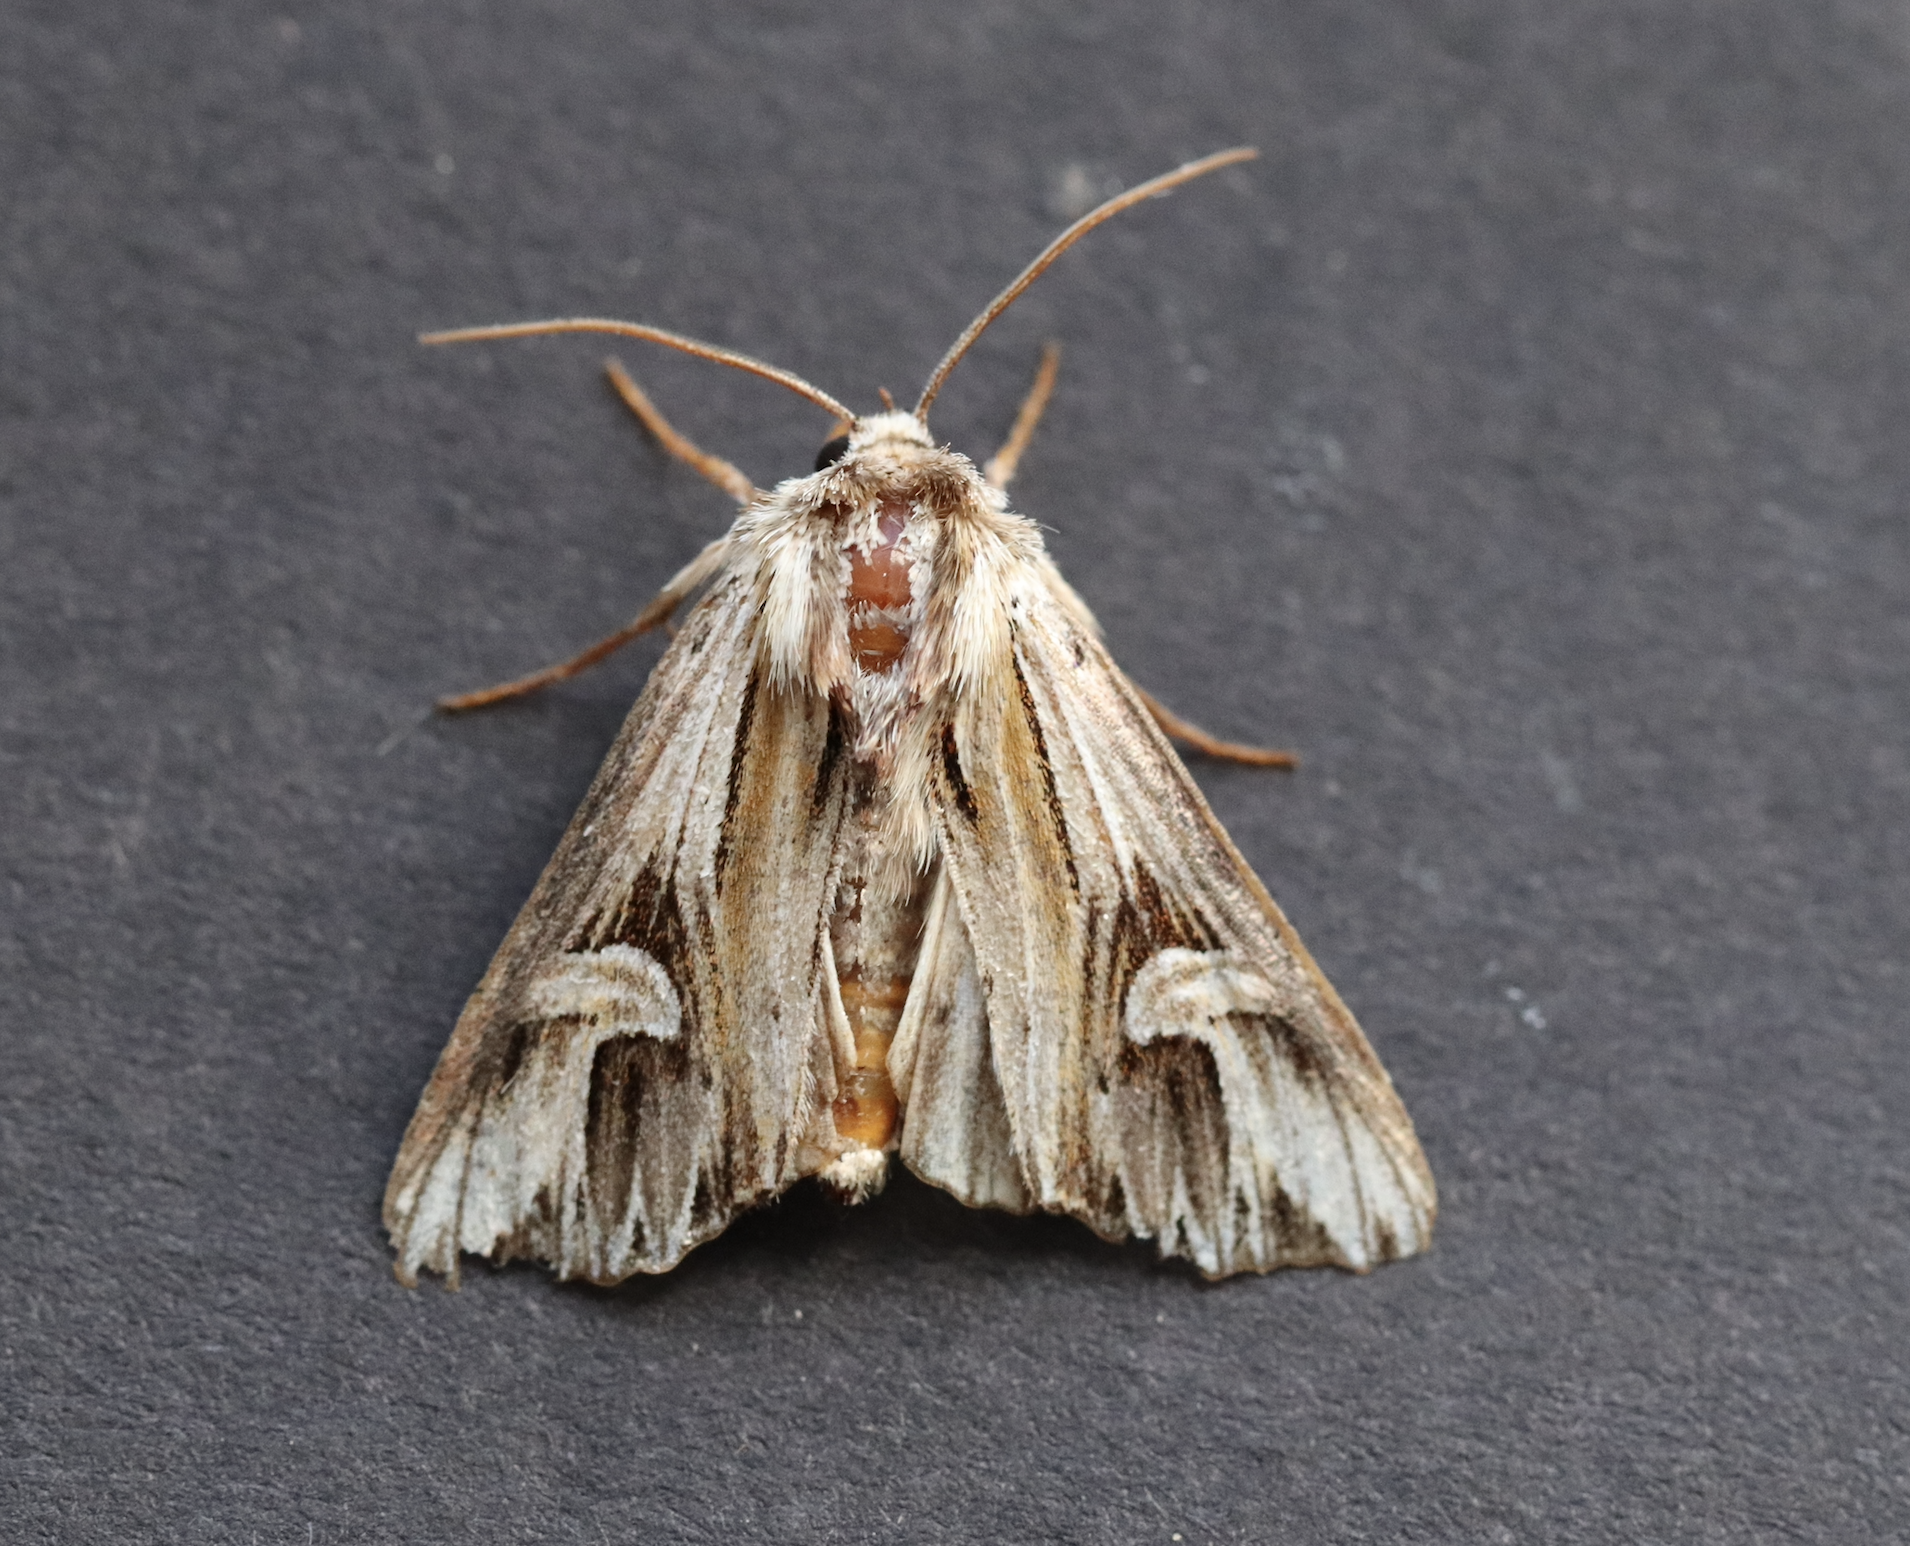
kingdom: Animalia
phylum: Arthropoda
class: Insecta
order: Lepidoptera
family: Noctuidae
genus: Actinotia
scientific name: Actinotia polyodon
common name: Purple cloud
